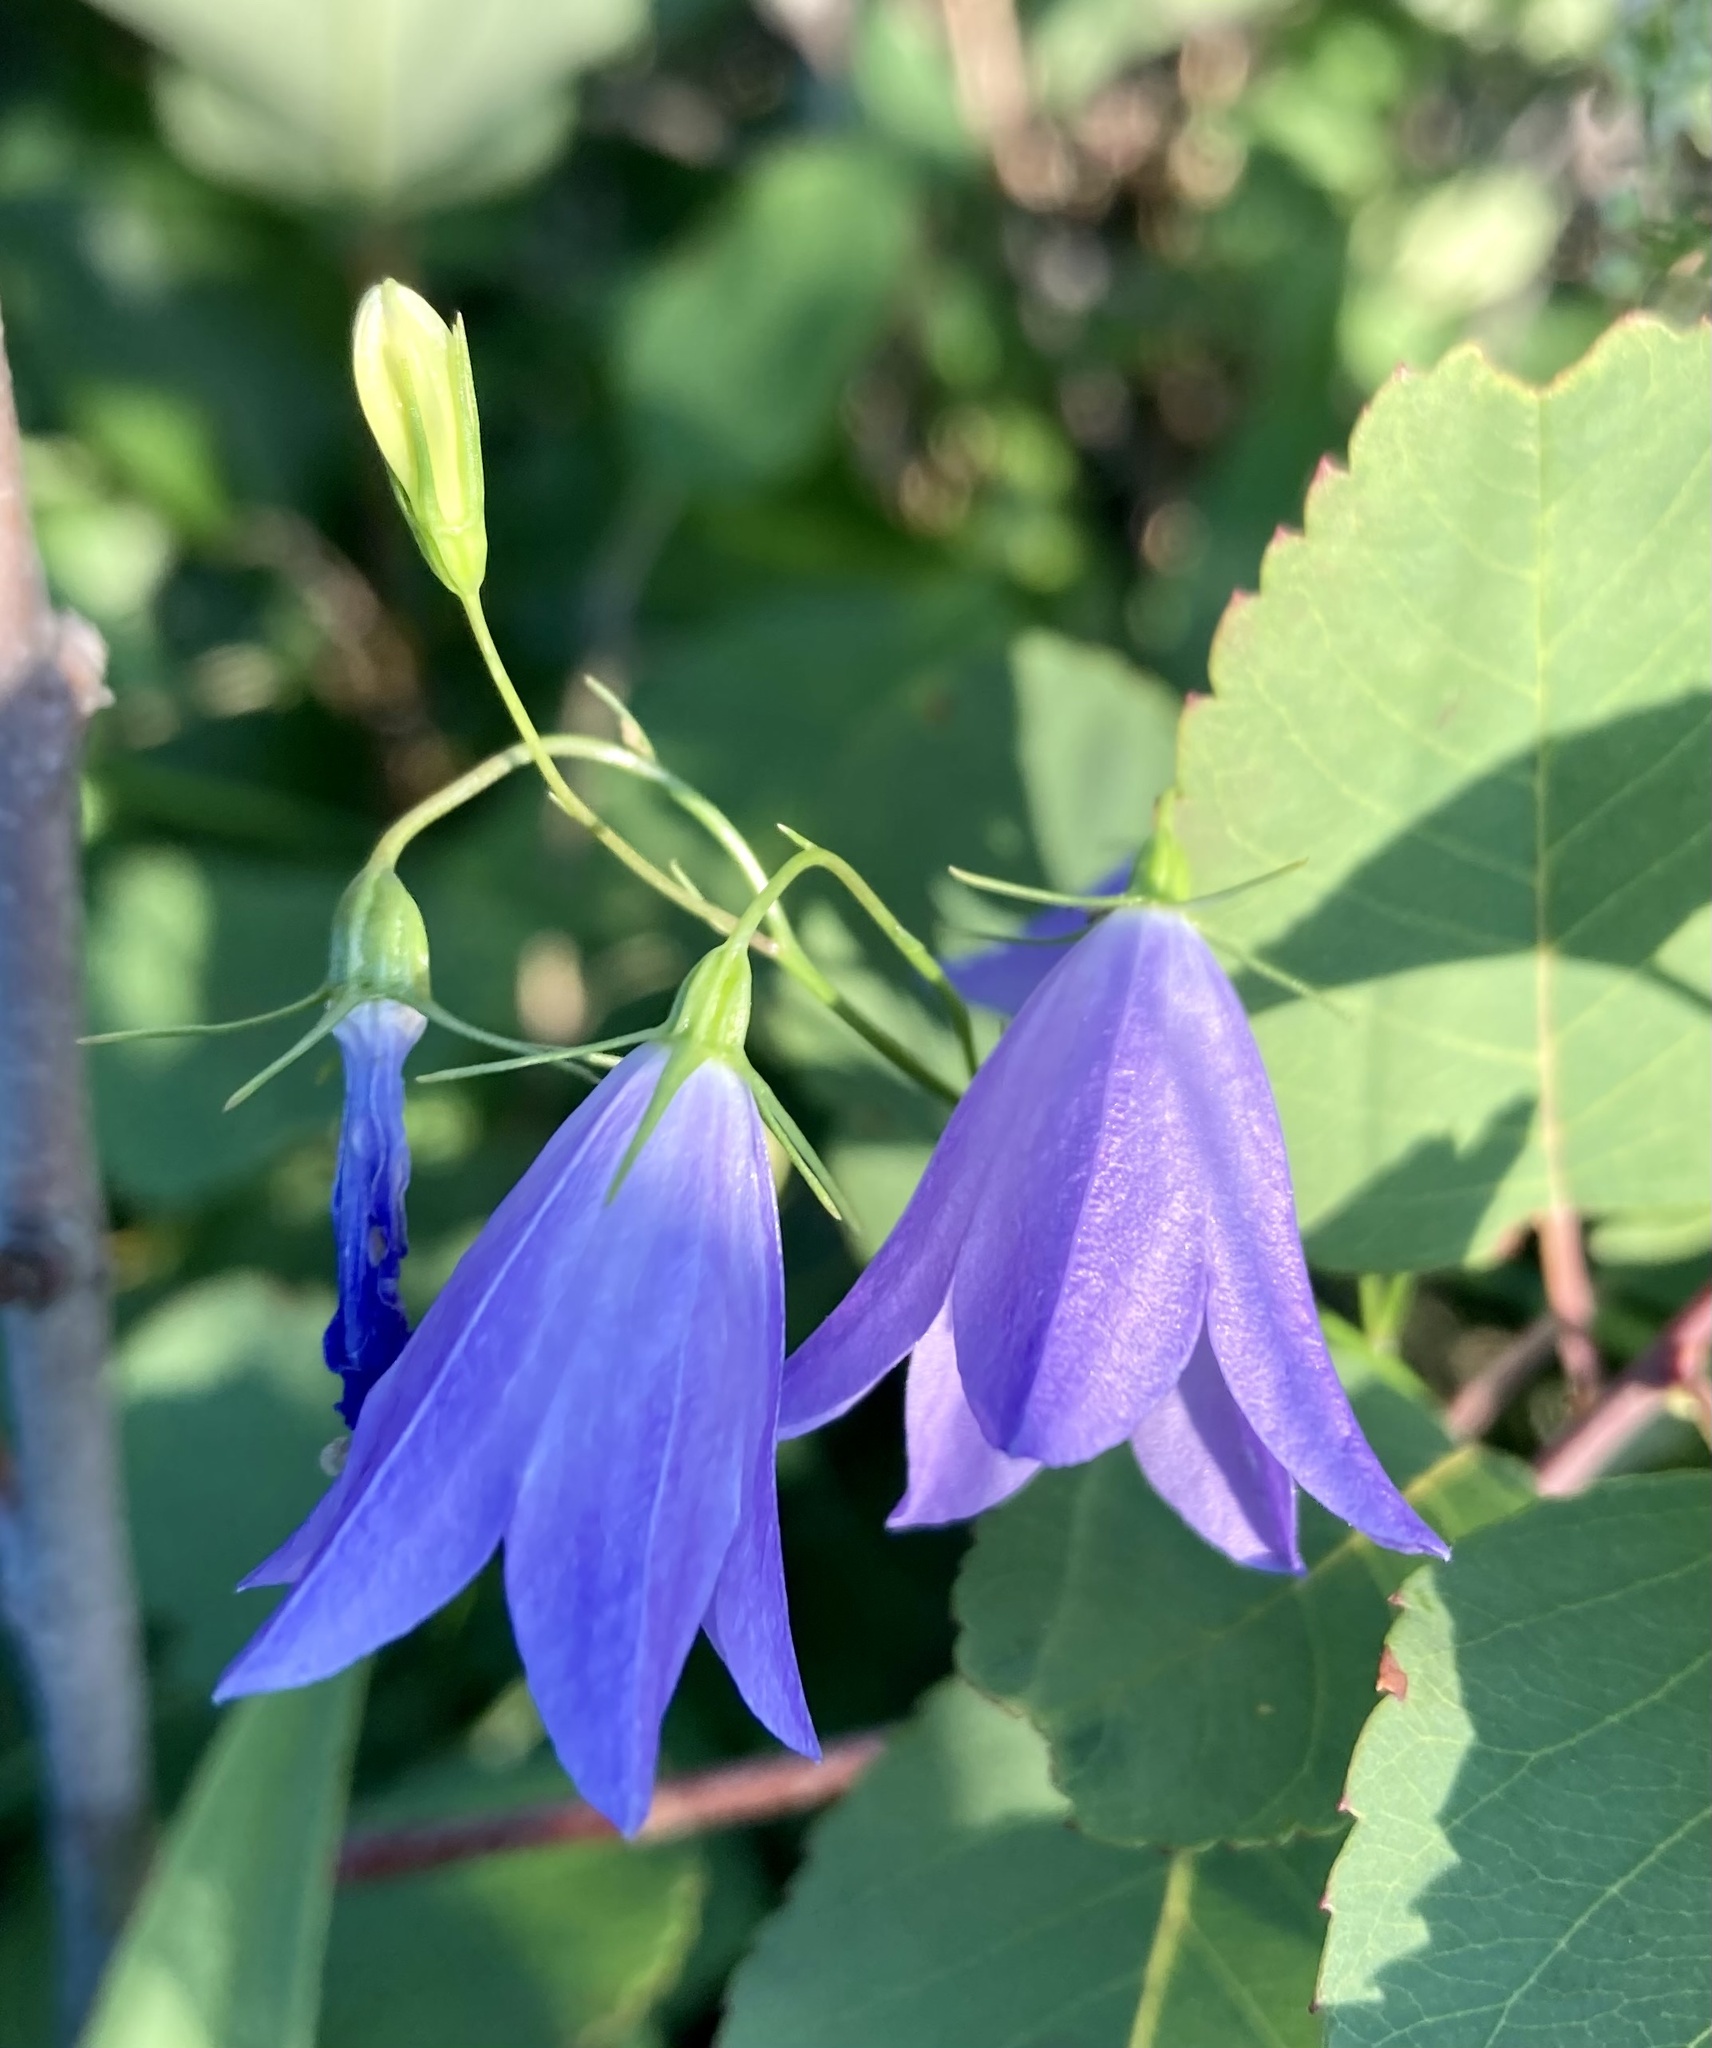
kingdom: Plantae
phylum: Tracheophyta
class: Magnoliopsida
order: Asterales
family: Campanulaceae
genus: Campanula
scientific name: Campanula alaskana
